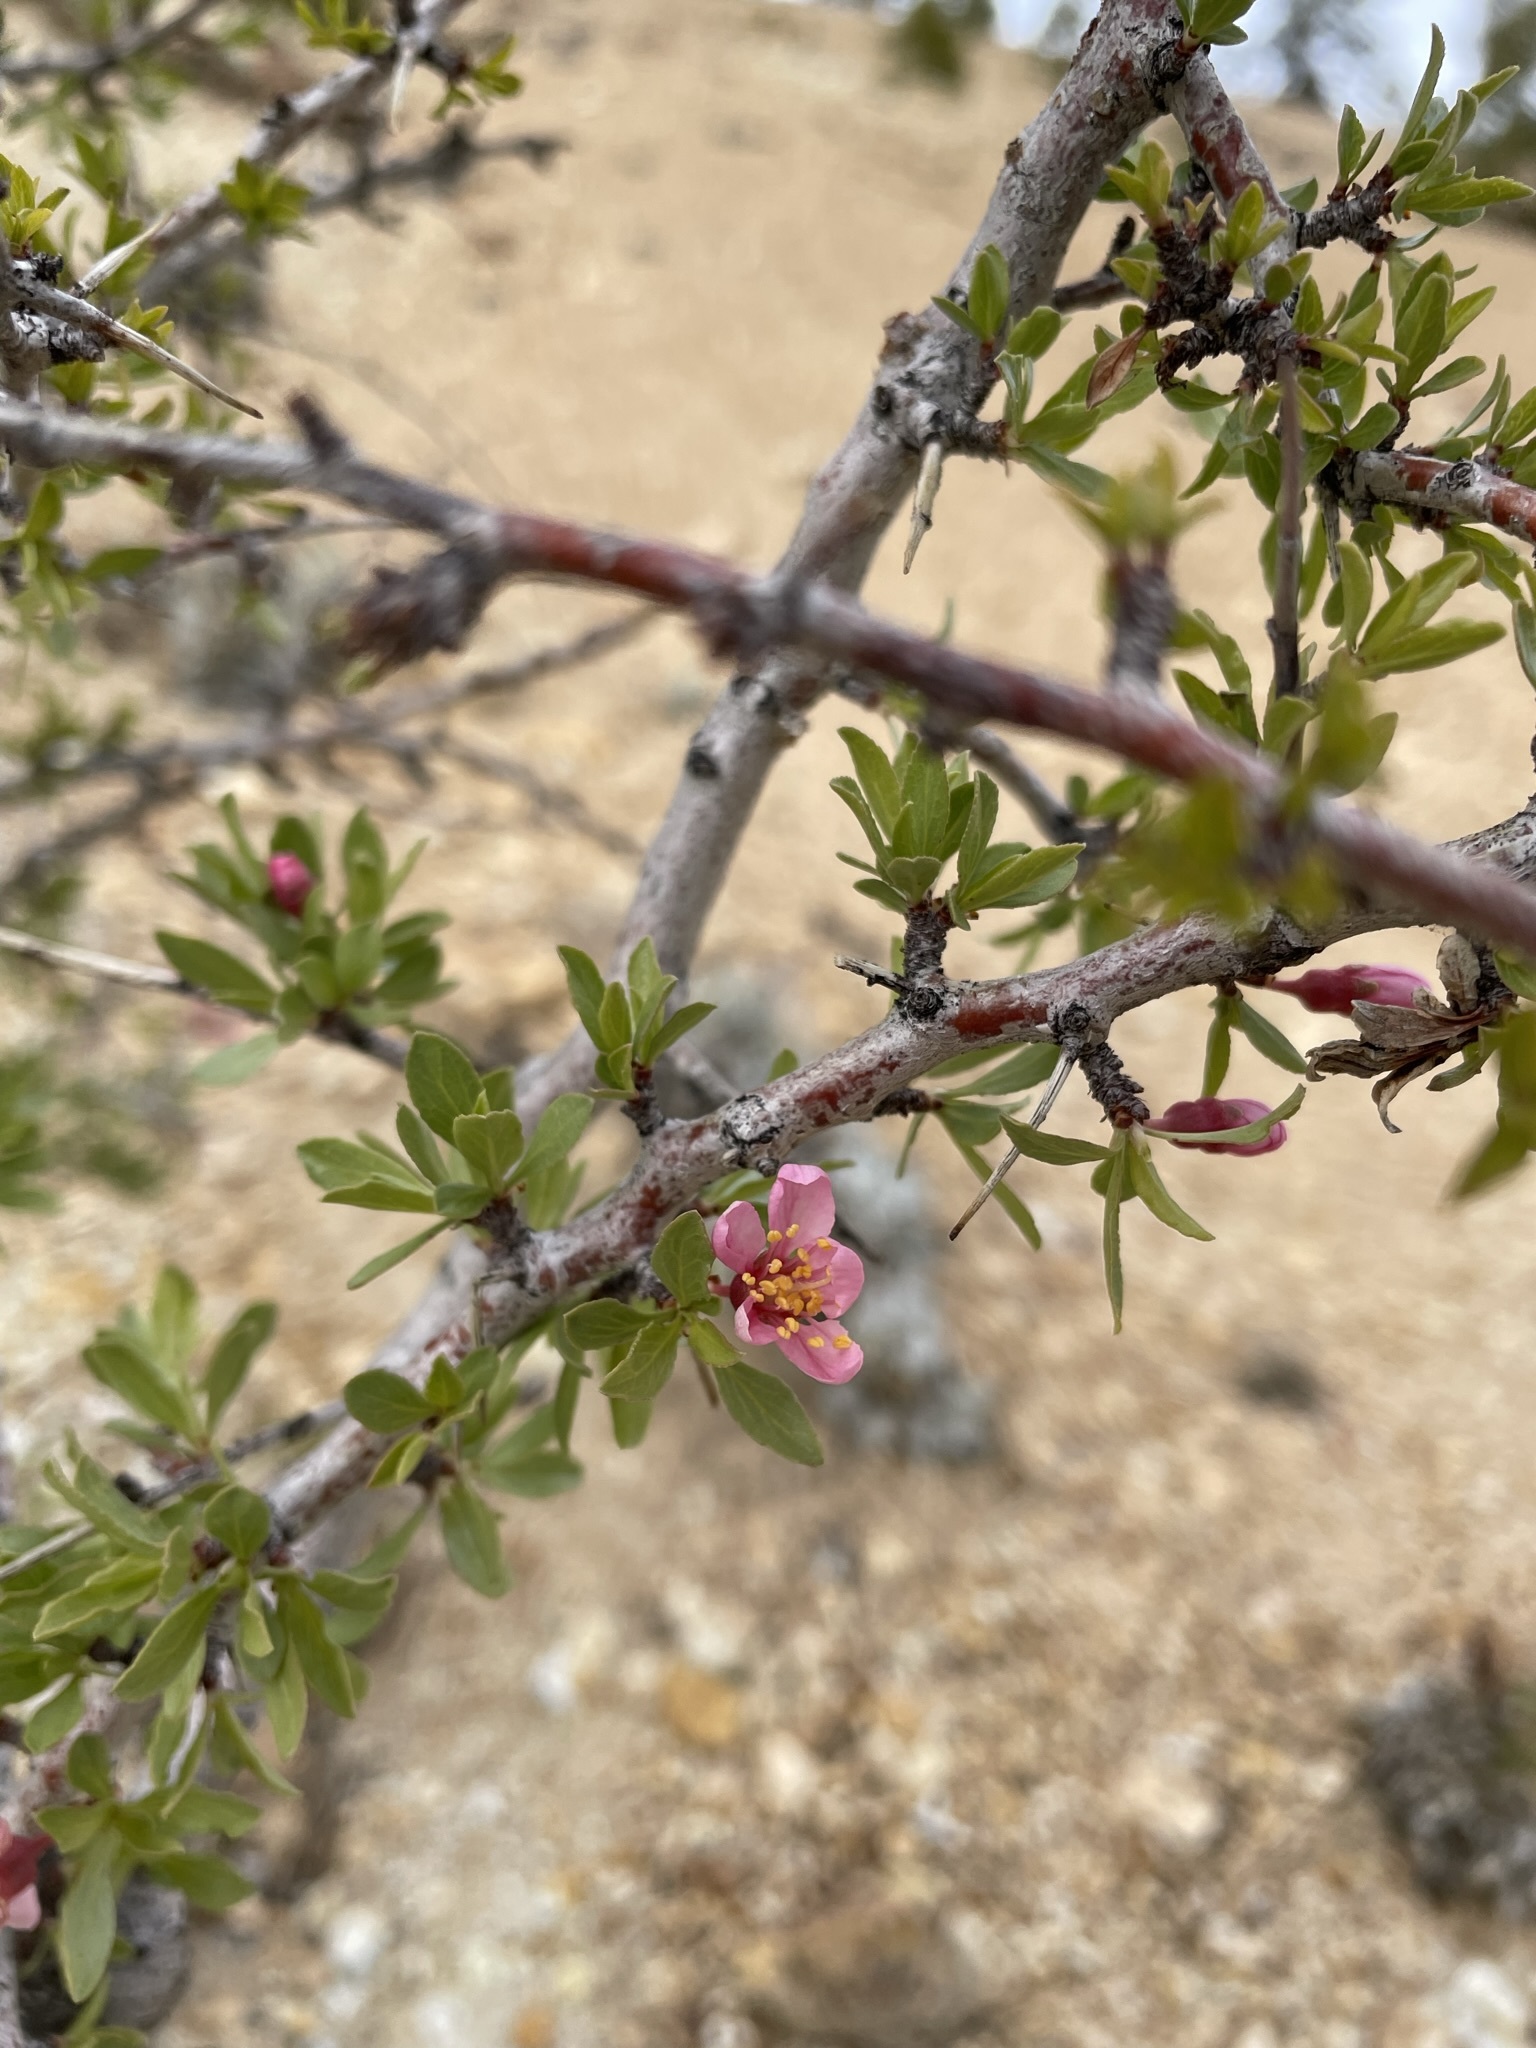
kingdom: Plantae
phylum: Tracheophyta
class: Magnoliopsida
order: Rosales
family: Rosaceae
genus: Prunus
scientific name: Prunus andersonii
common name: Desert peach
